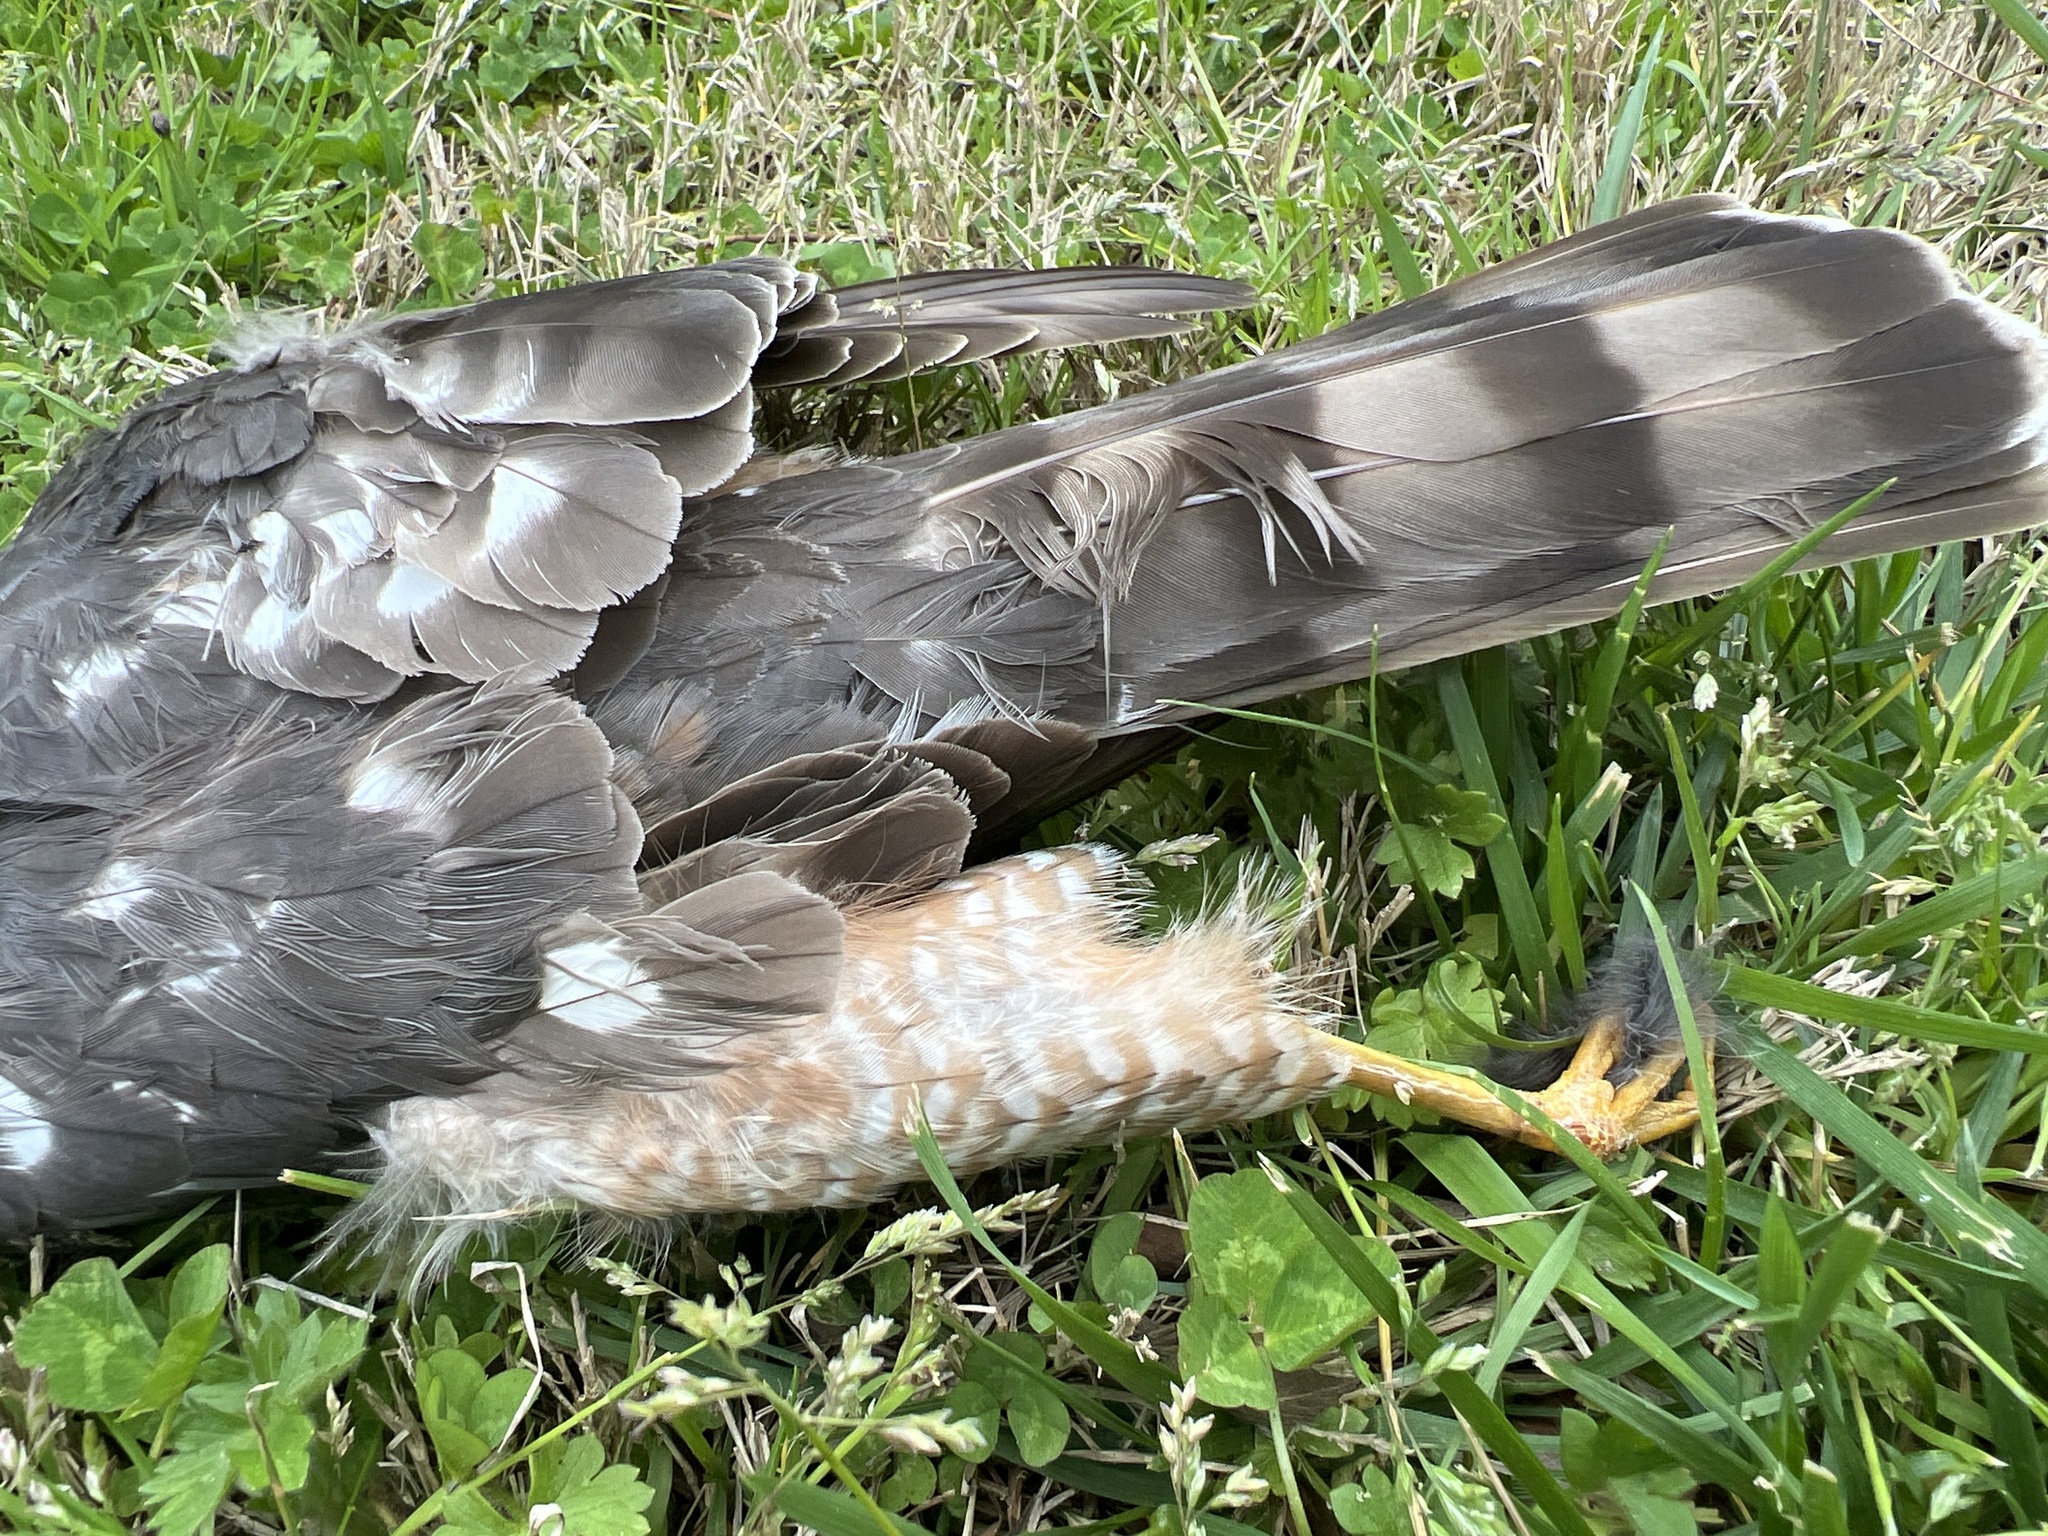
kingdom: Animalia
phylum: Chordata
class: Aves
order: Accipitriformes
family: Accipitridae
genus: Accipiter
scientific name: Accipiter striatus
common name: Sharp-shinned hawk
